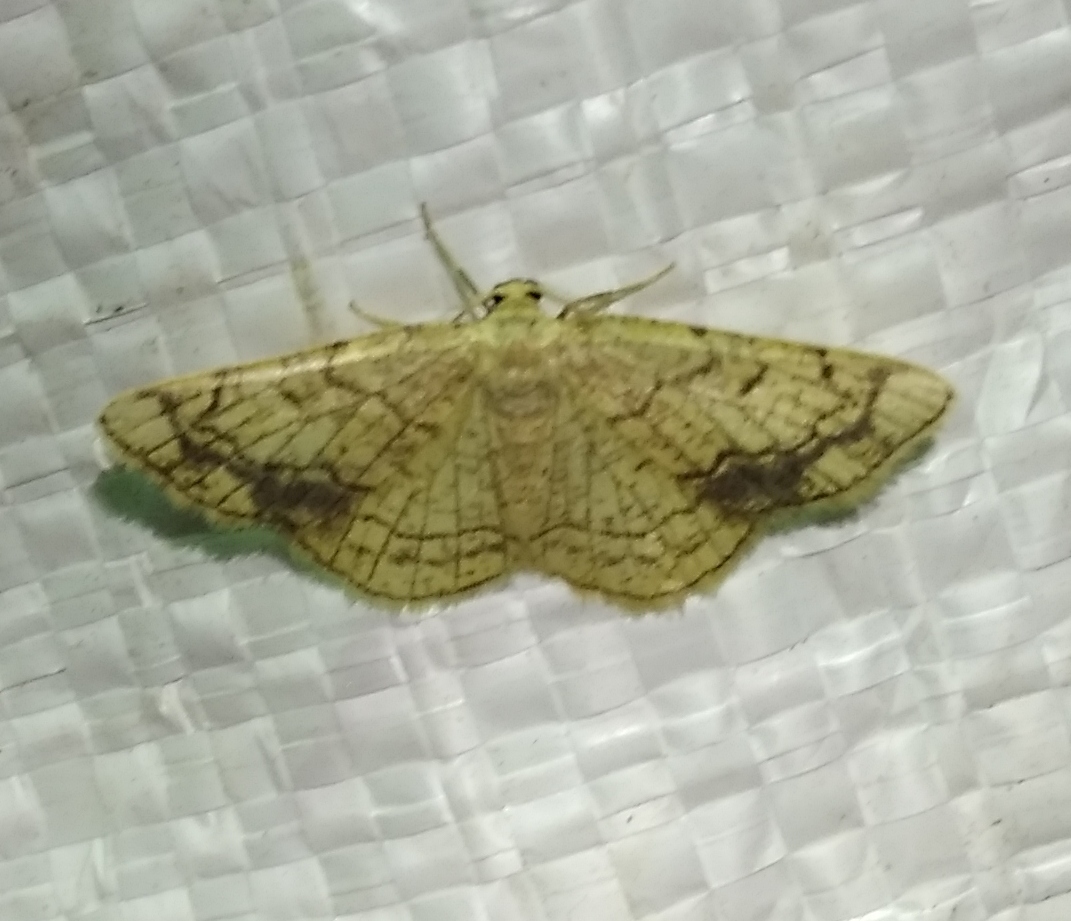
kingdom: Animalia
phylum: Arthropoda
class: Insecta
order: Lepidoptera
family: Geometridae
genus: Stegania
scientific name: Stegania dilectaria
